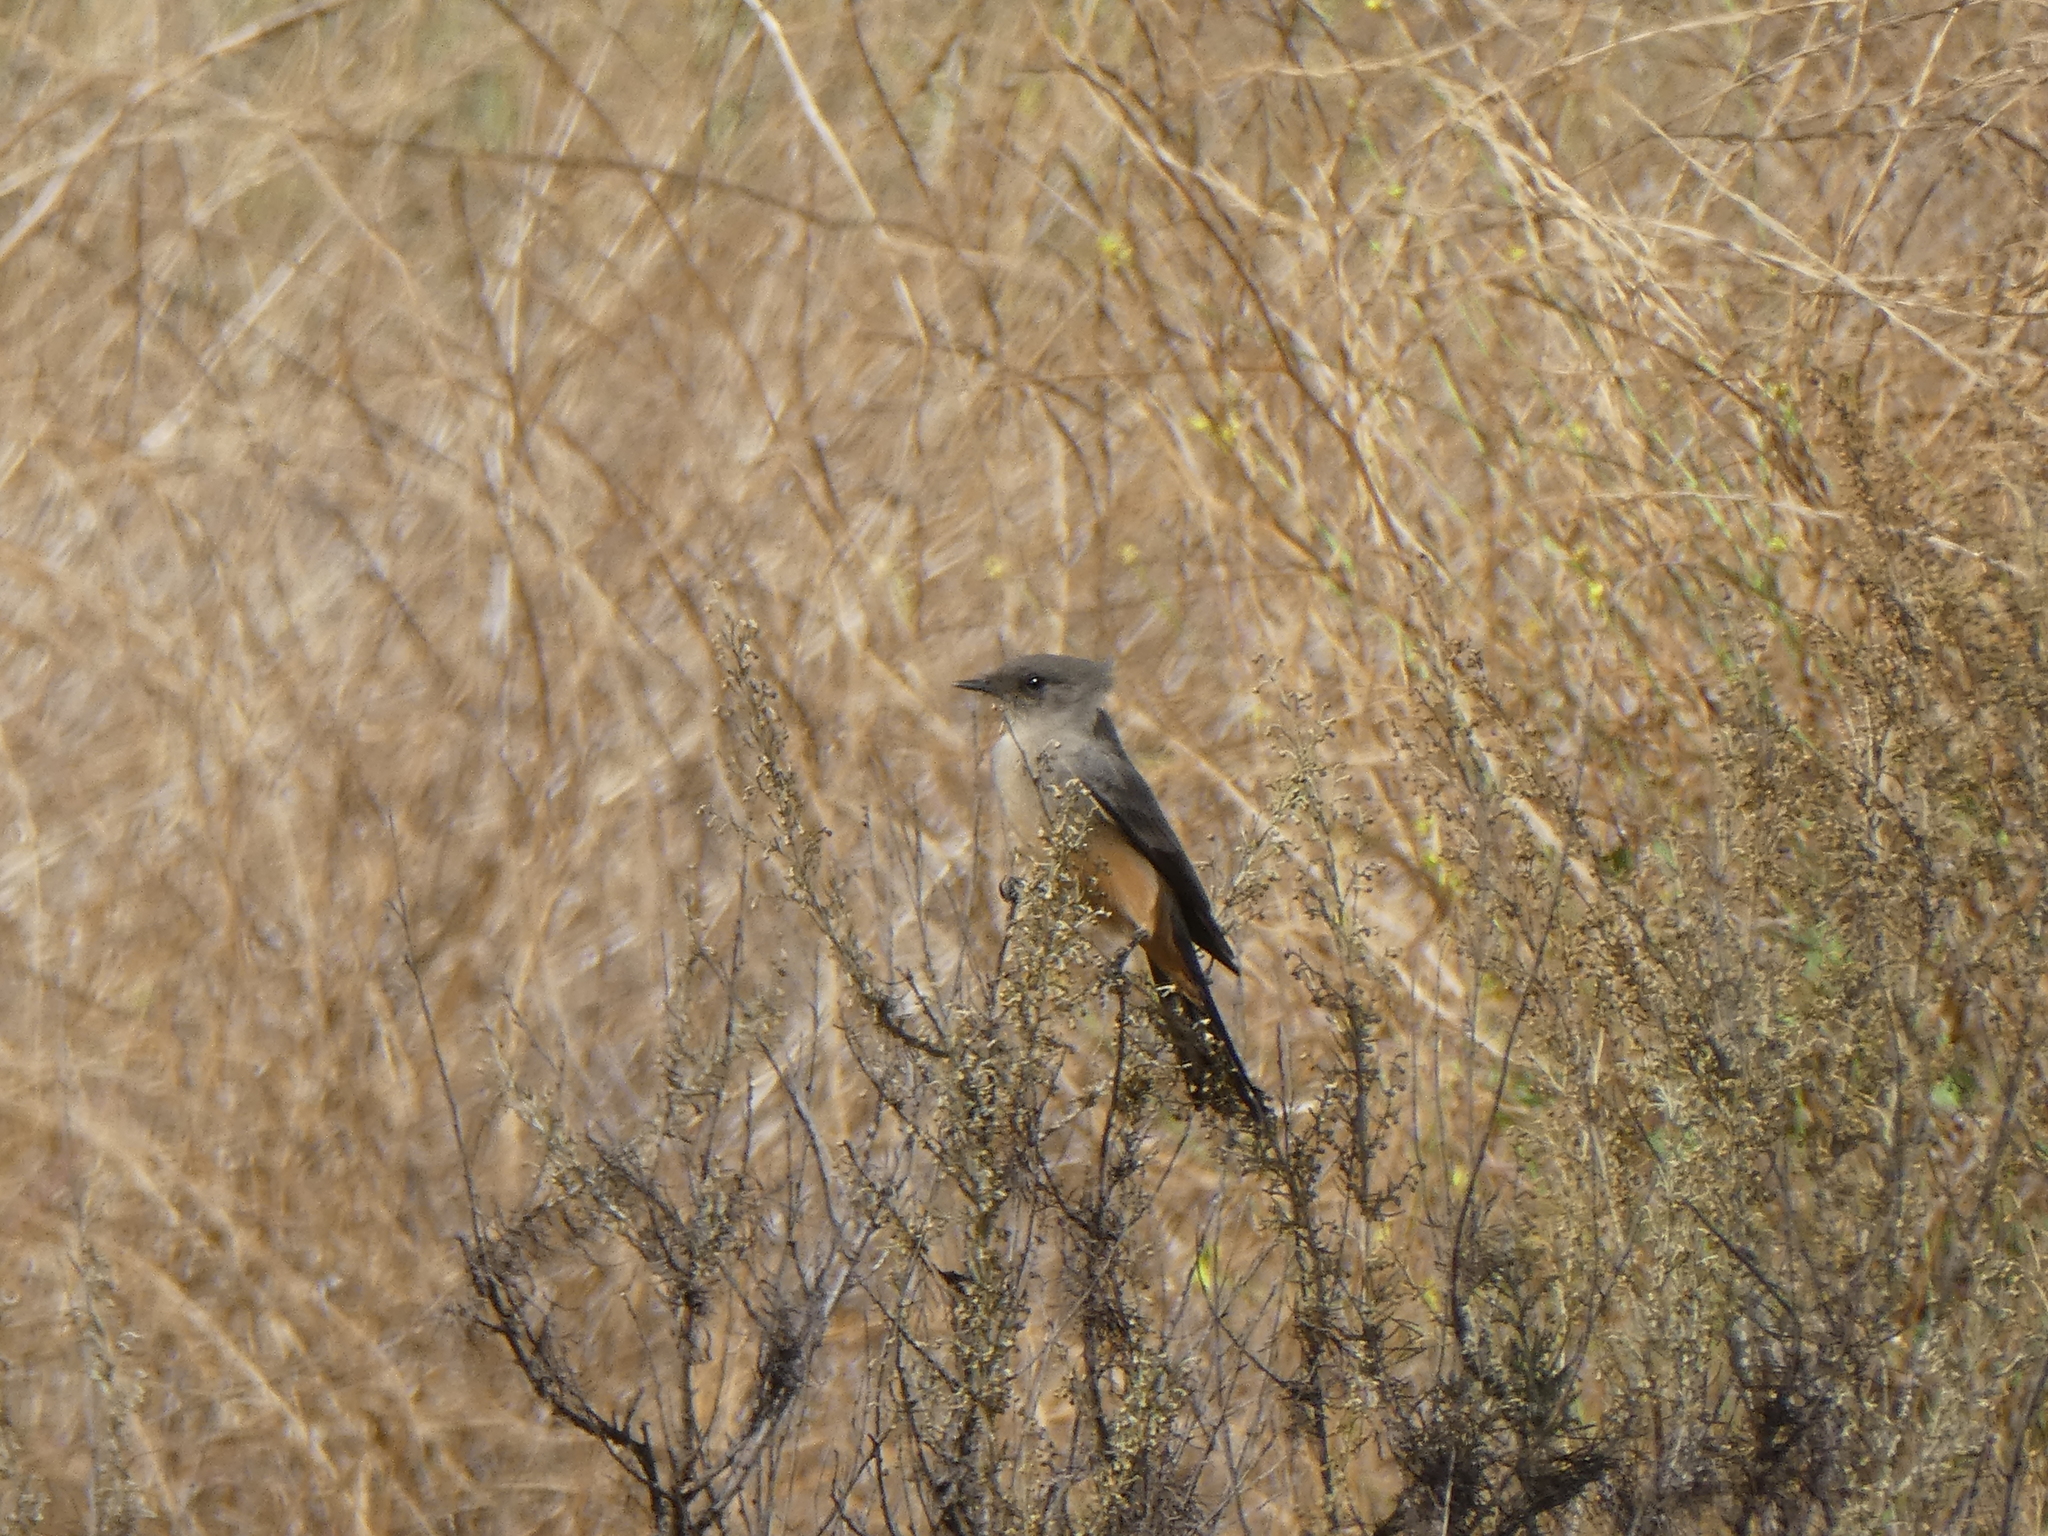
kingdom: Animalia
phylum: Chordata
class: Aves
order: Passeriformes
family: Tyrannidae
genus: Sayornis
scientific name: Sayornis saya
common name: Say's phoebe
